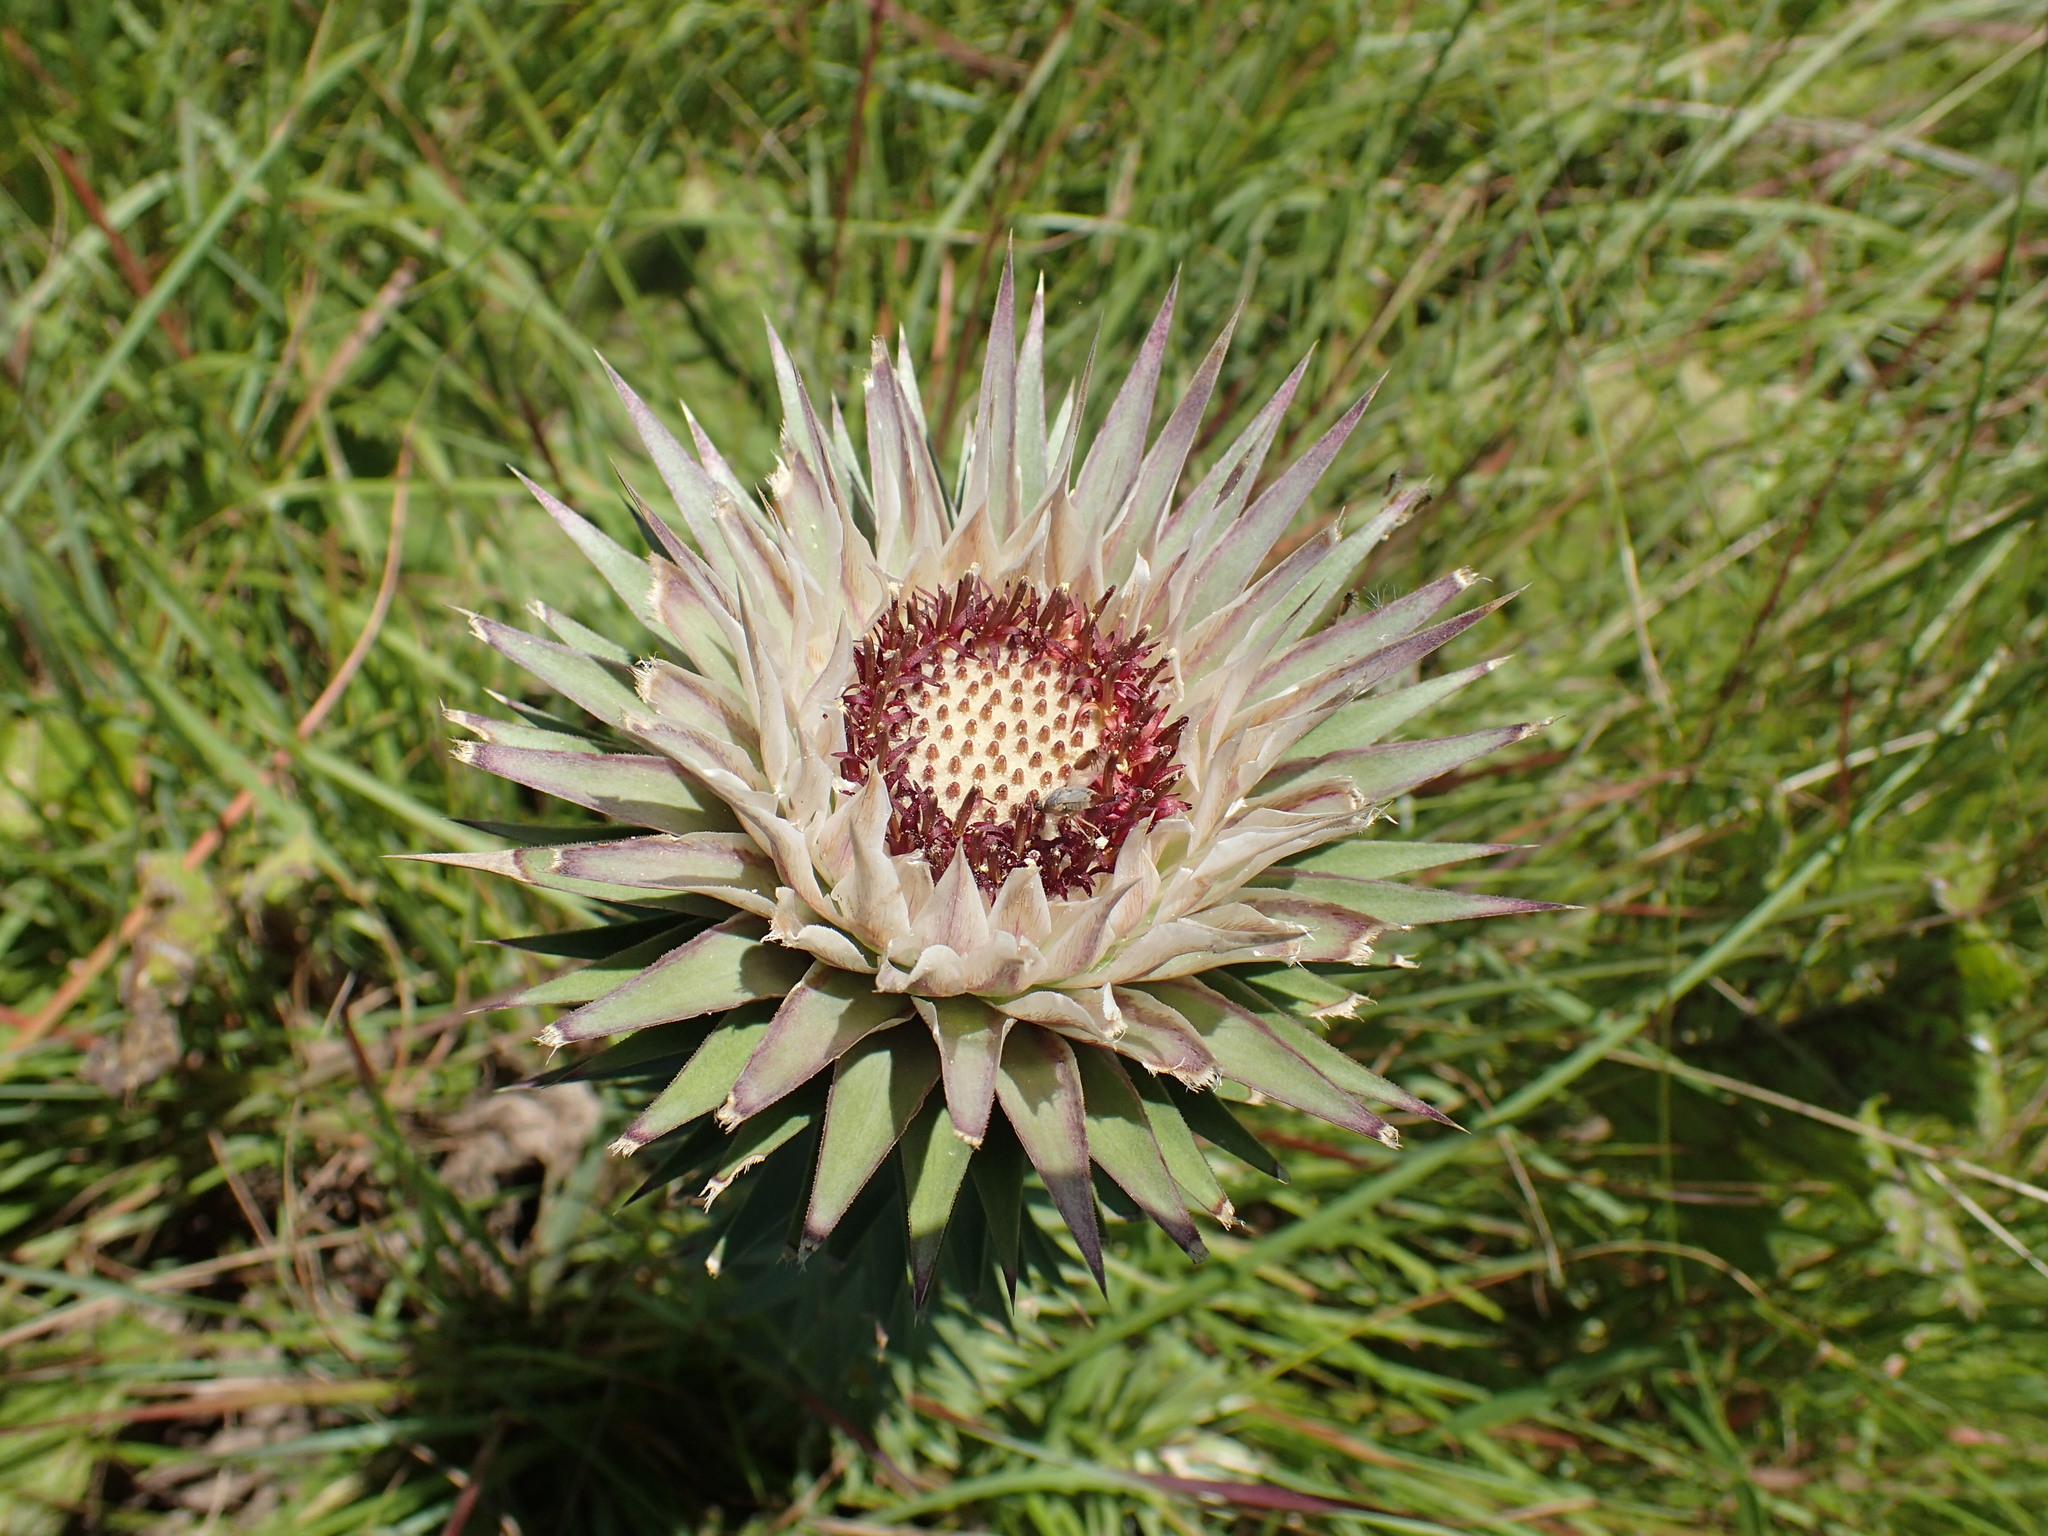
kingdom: Plantae
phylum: Tracheophyta
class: Magnoliopsida
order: Asterales
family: Asteraceae
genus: Macledium
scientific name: Macledium zeyheri
